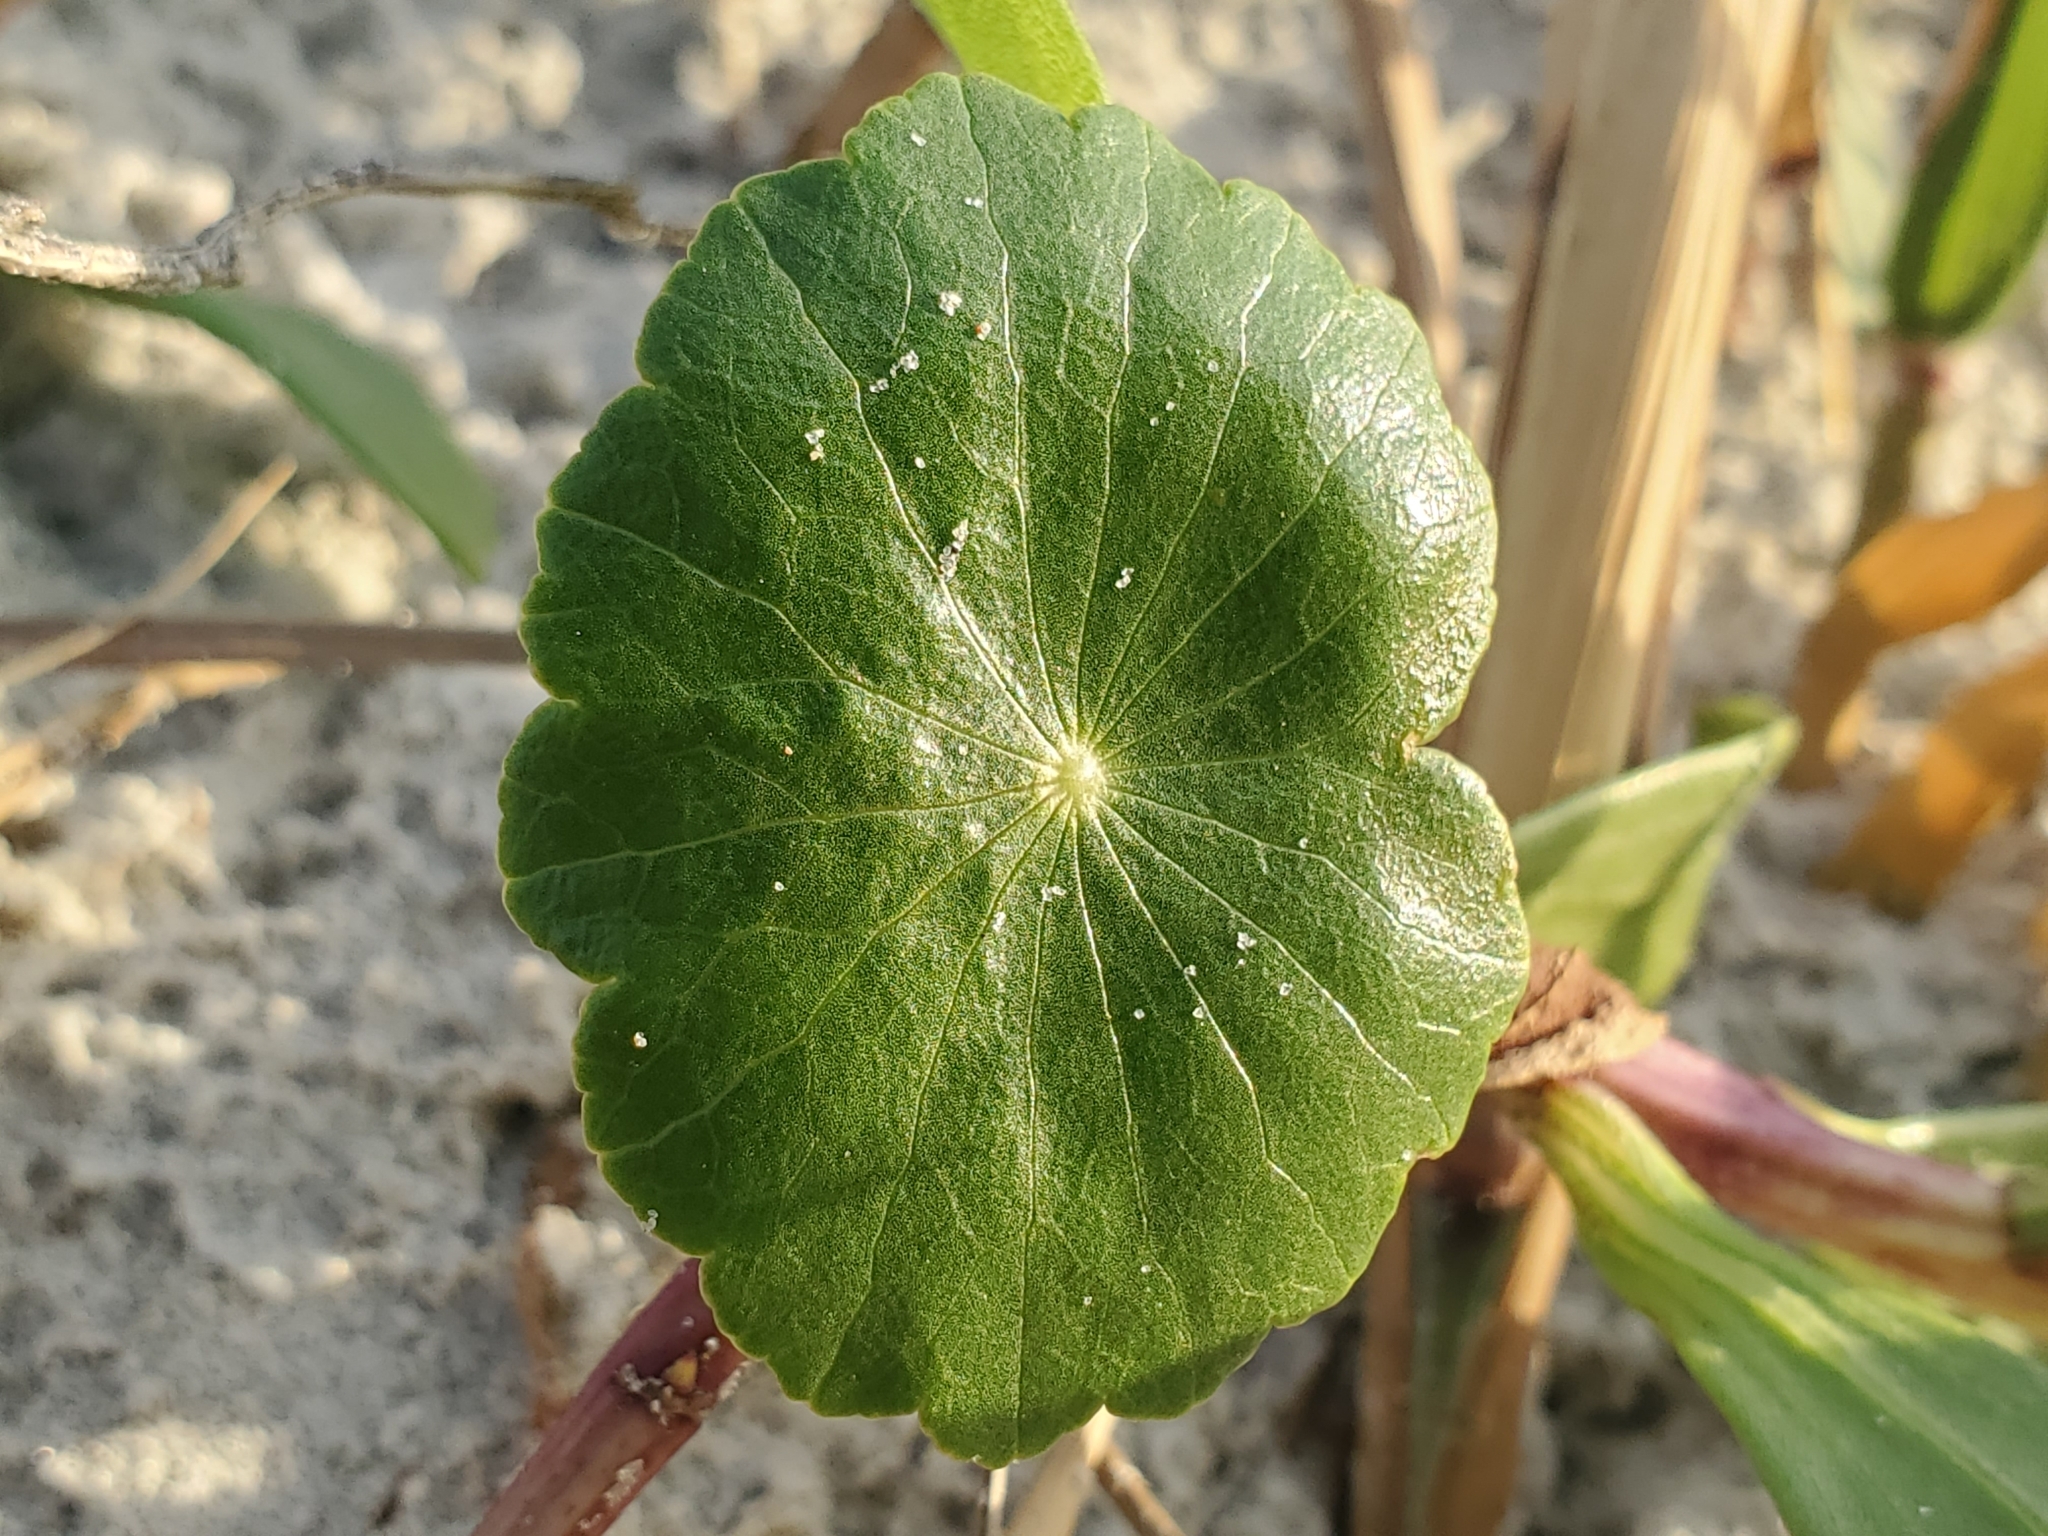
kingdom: Plantae
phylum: Tracheophyta
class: Magnoliopsida
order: Apiales
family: Araliaceae
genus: Hydrocotyle
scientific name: Hydrocotyle bonariensis
